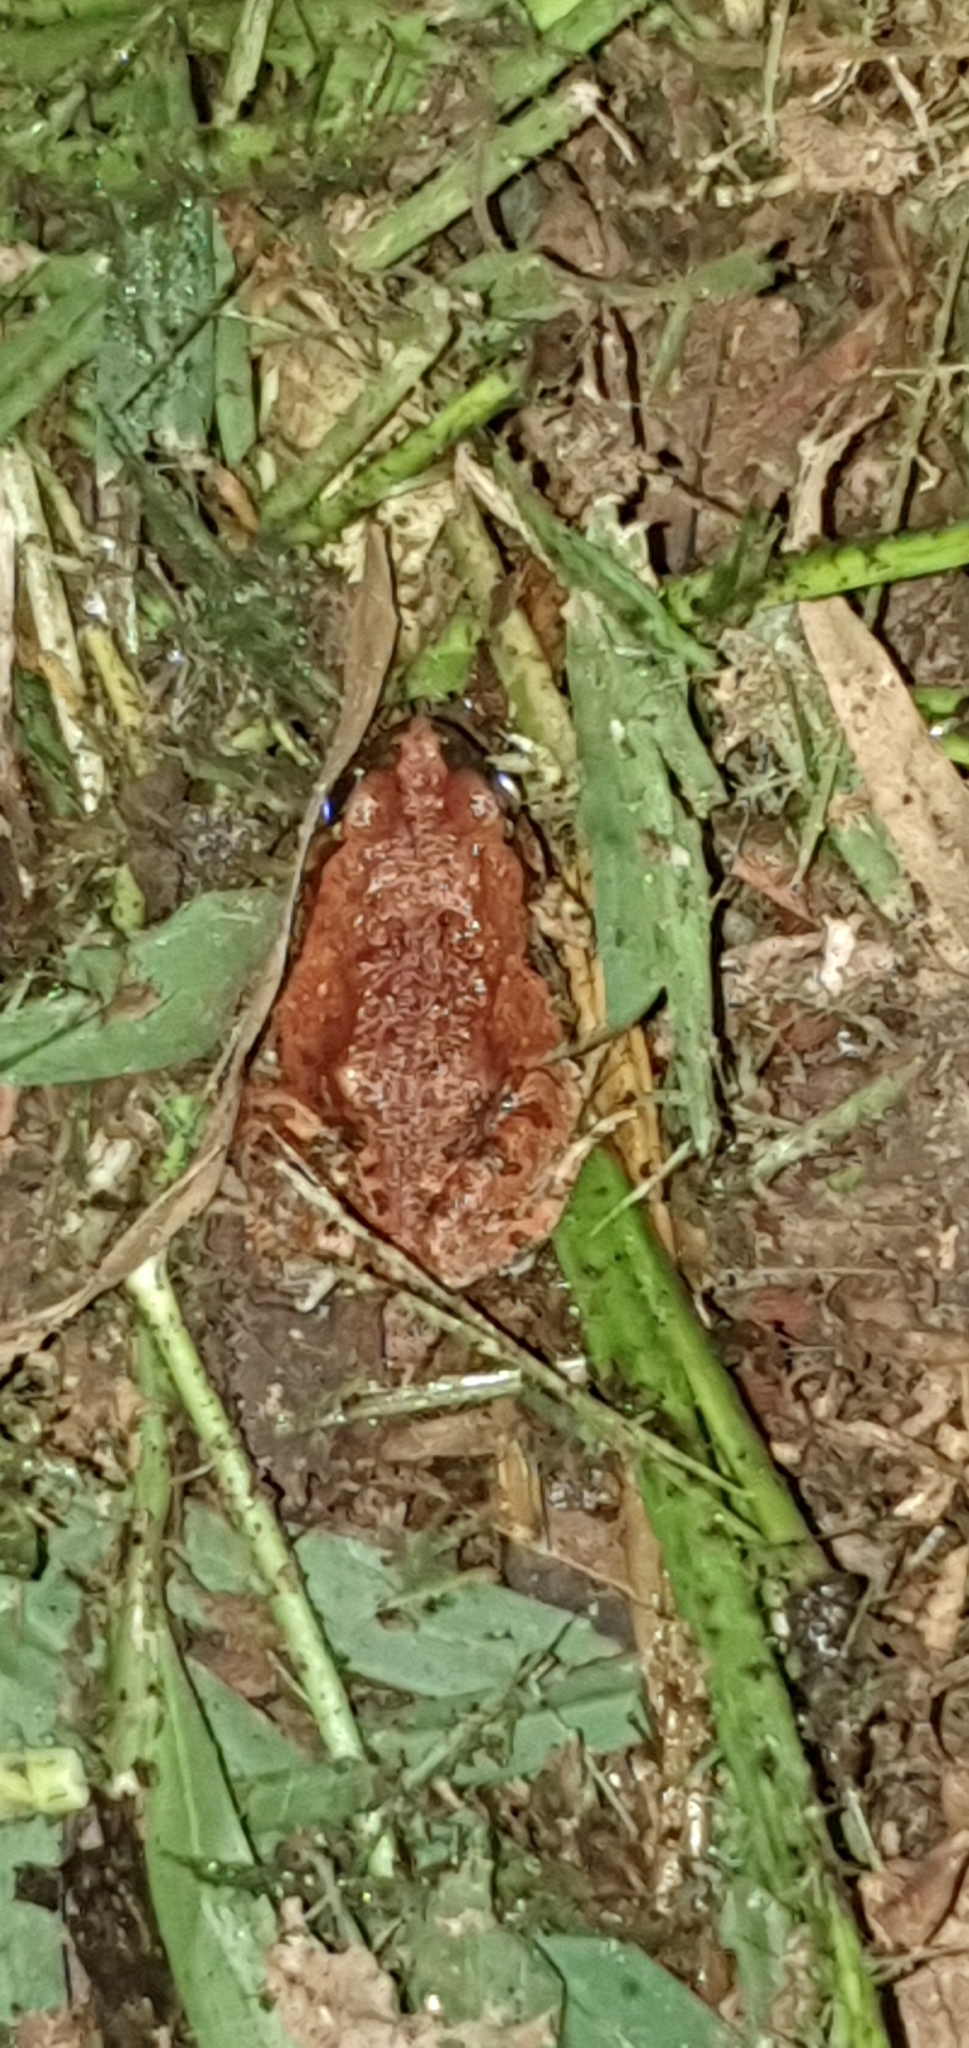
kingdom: Animalia
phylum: Chordata
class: Amphibia
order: Anura
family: Limnodynastidae
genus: Platyplectrum
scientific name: Platyplectrum ornatum
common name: Ornate burrowing frog
